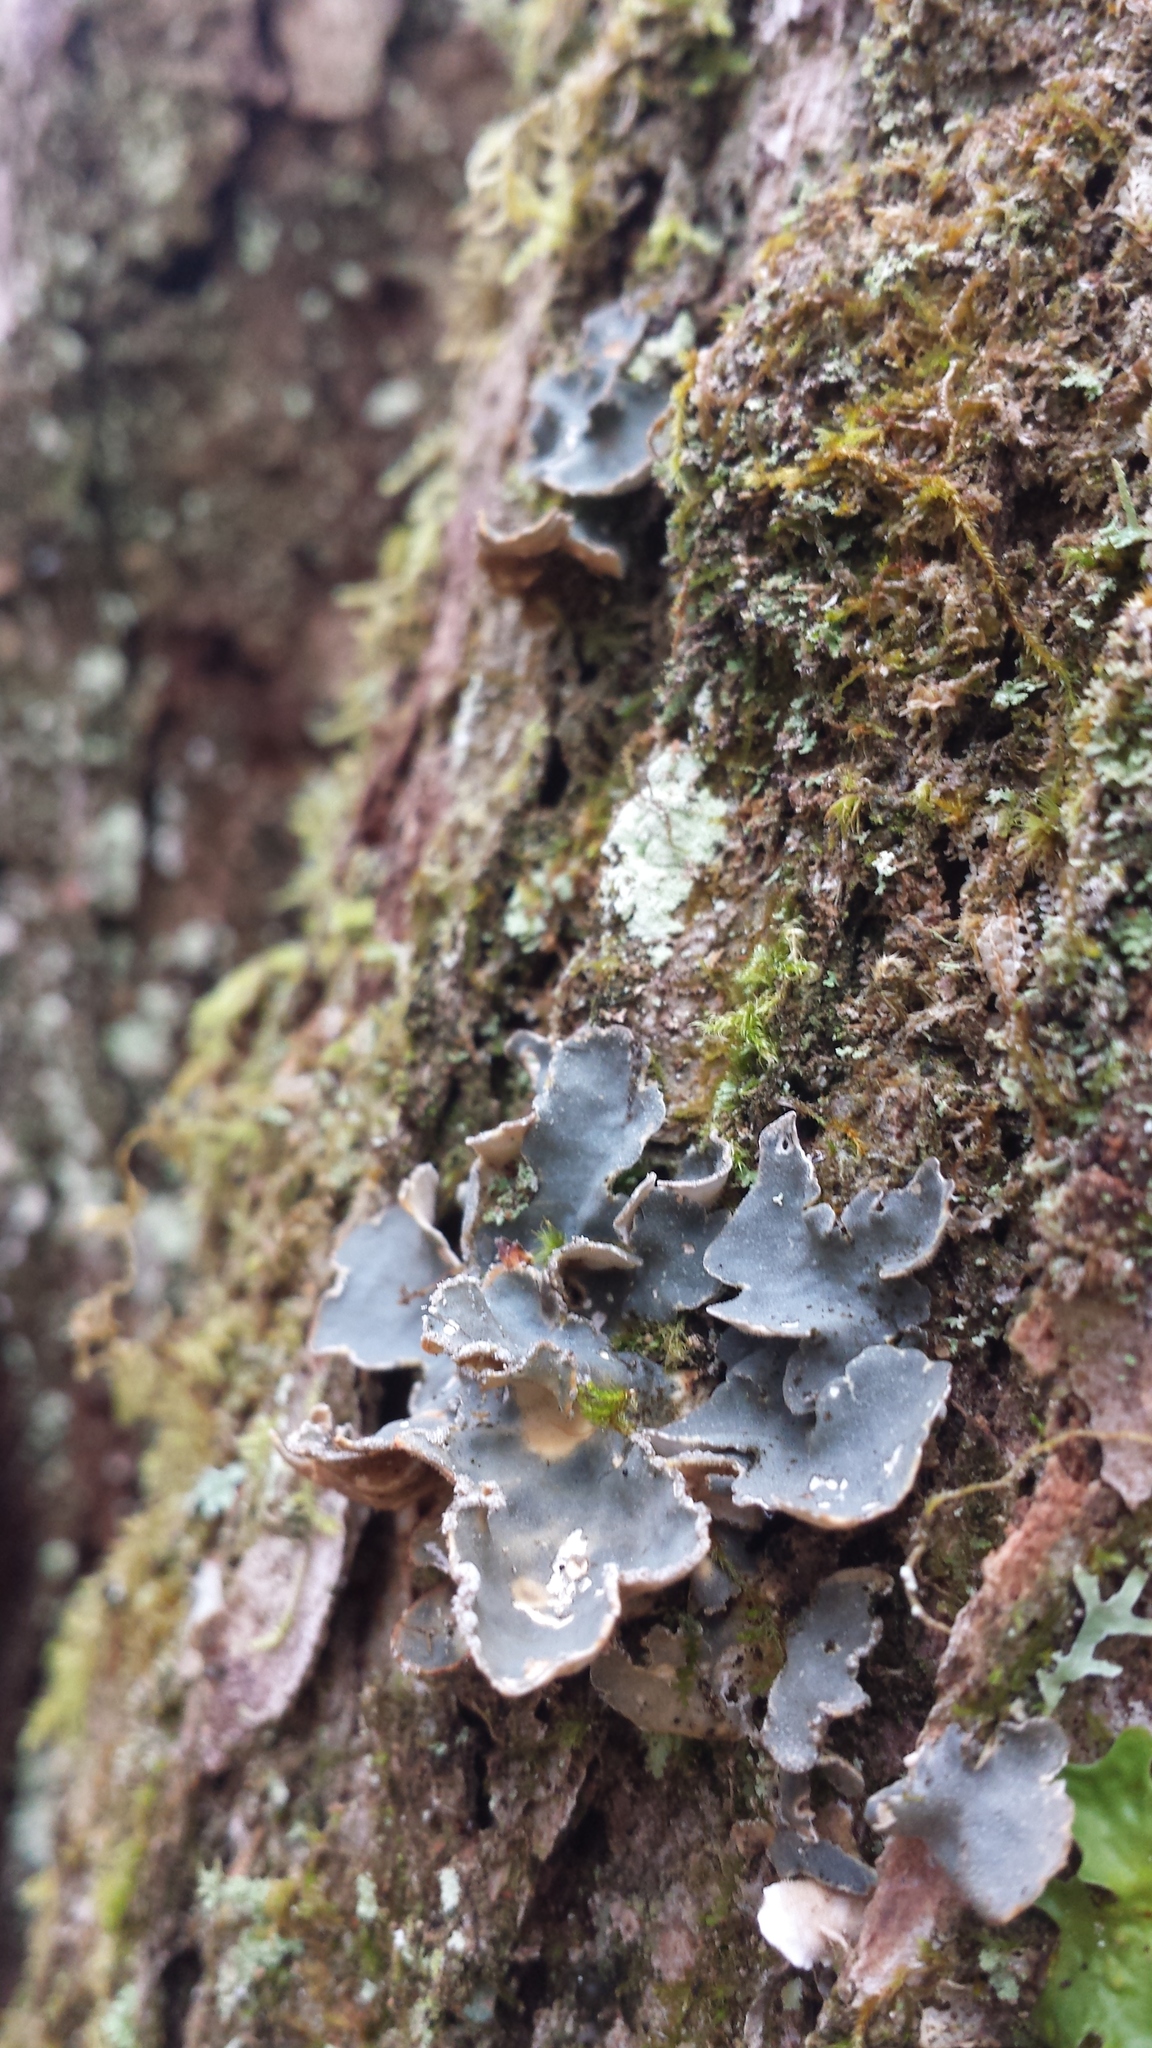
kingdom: Fungi
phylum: Ascomycota
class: Lecanoromycetes
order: Peltigerales
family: Lobariaceae
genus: Lobarina
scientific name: Lobarina scrobiculata
